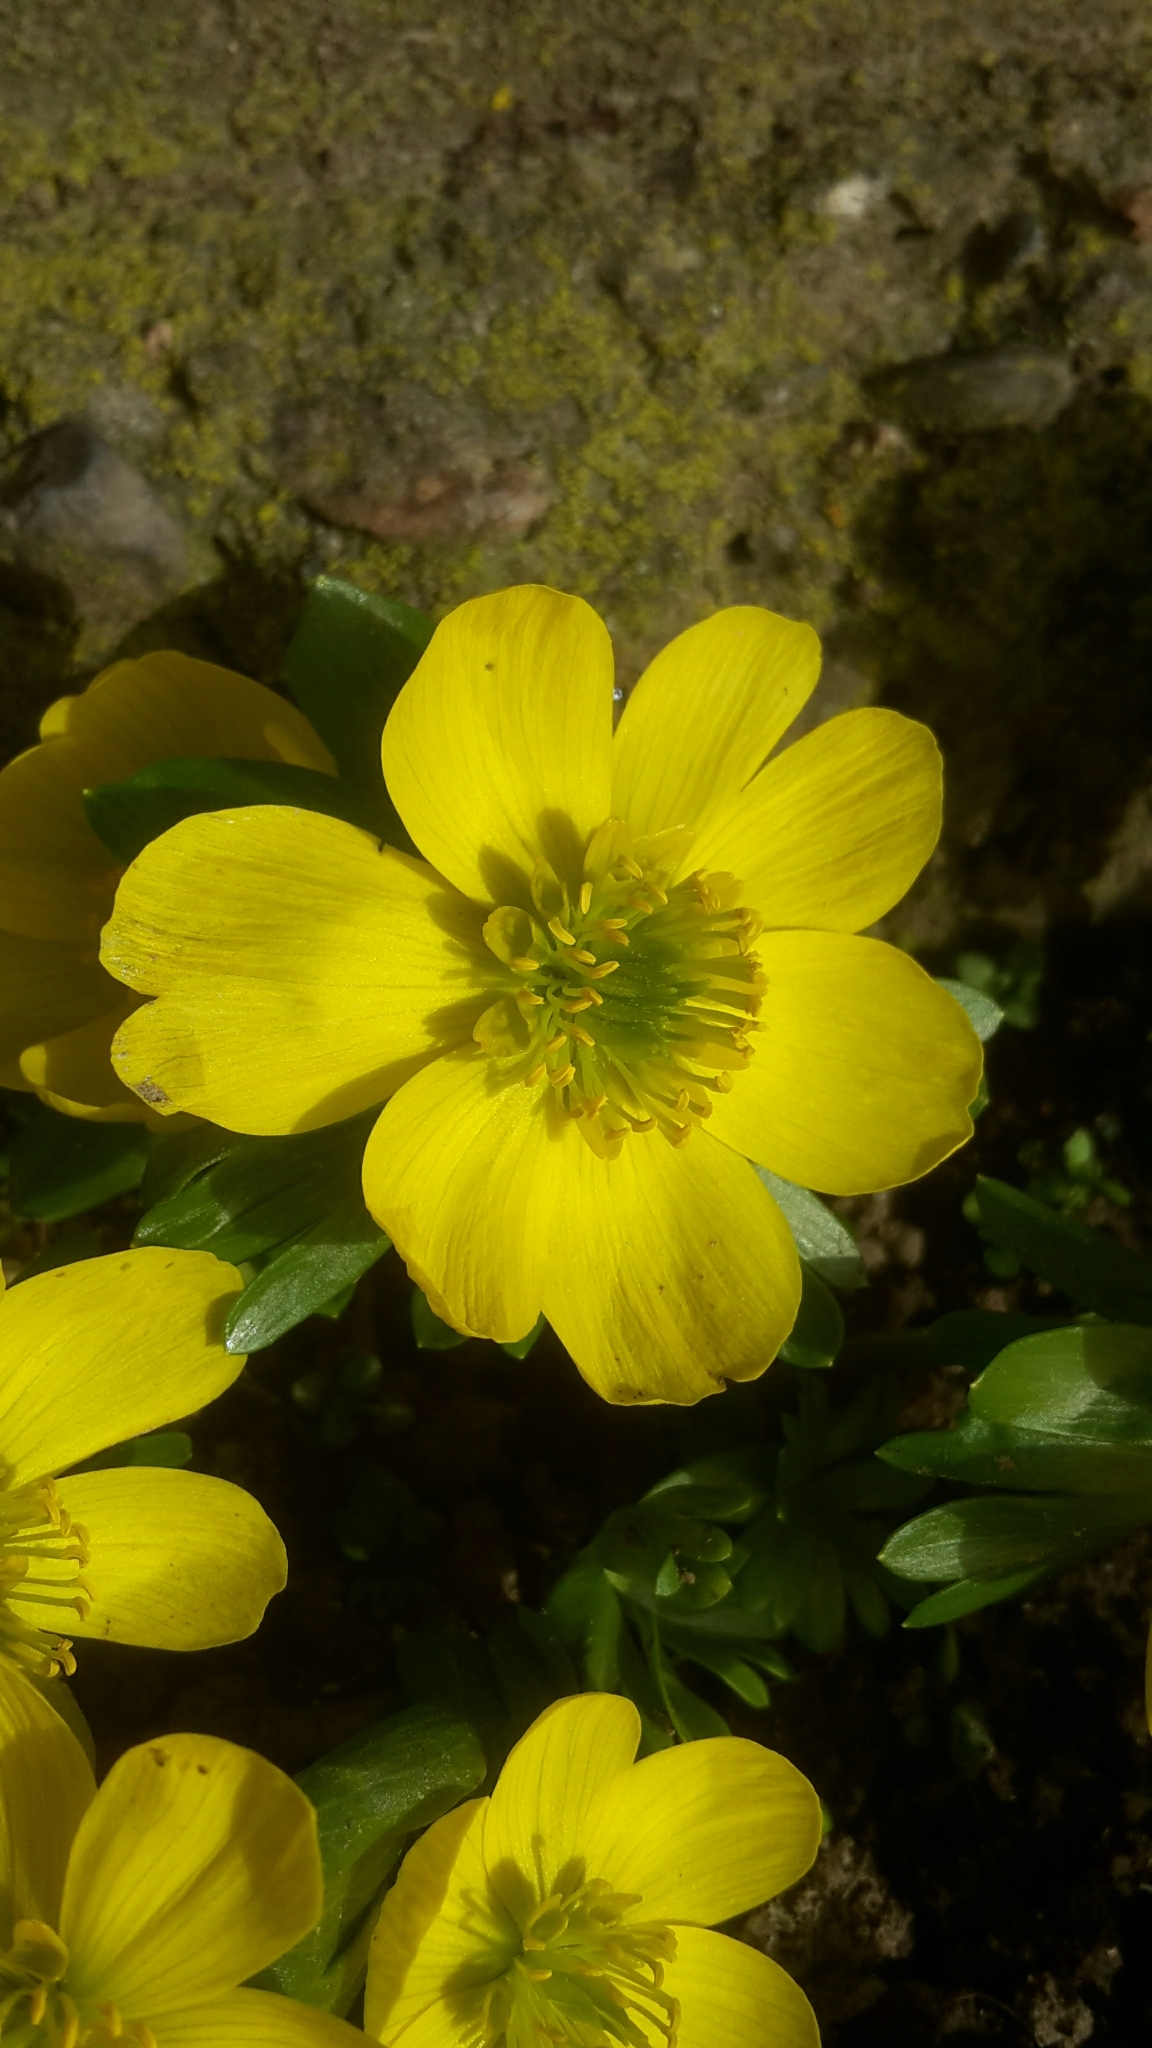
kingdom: Plantae
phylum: Tracheophyta
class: Magnoliopsida
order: Ranunculales
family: Ranunculaceae
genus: Eranthis
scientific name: Eranthis hyemalis
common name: Winter aconite
